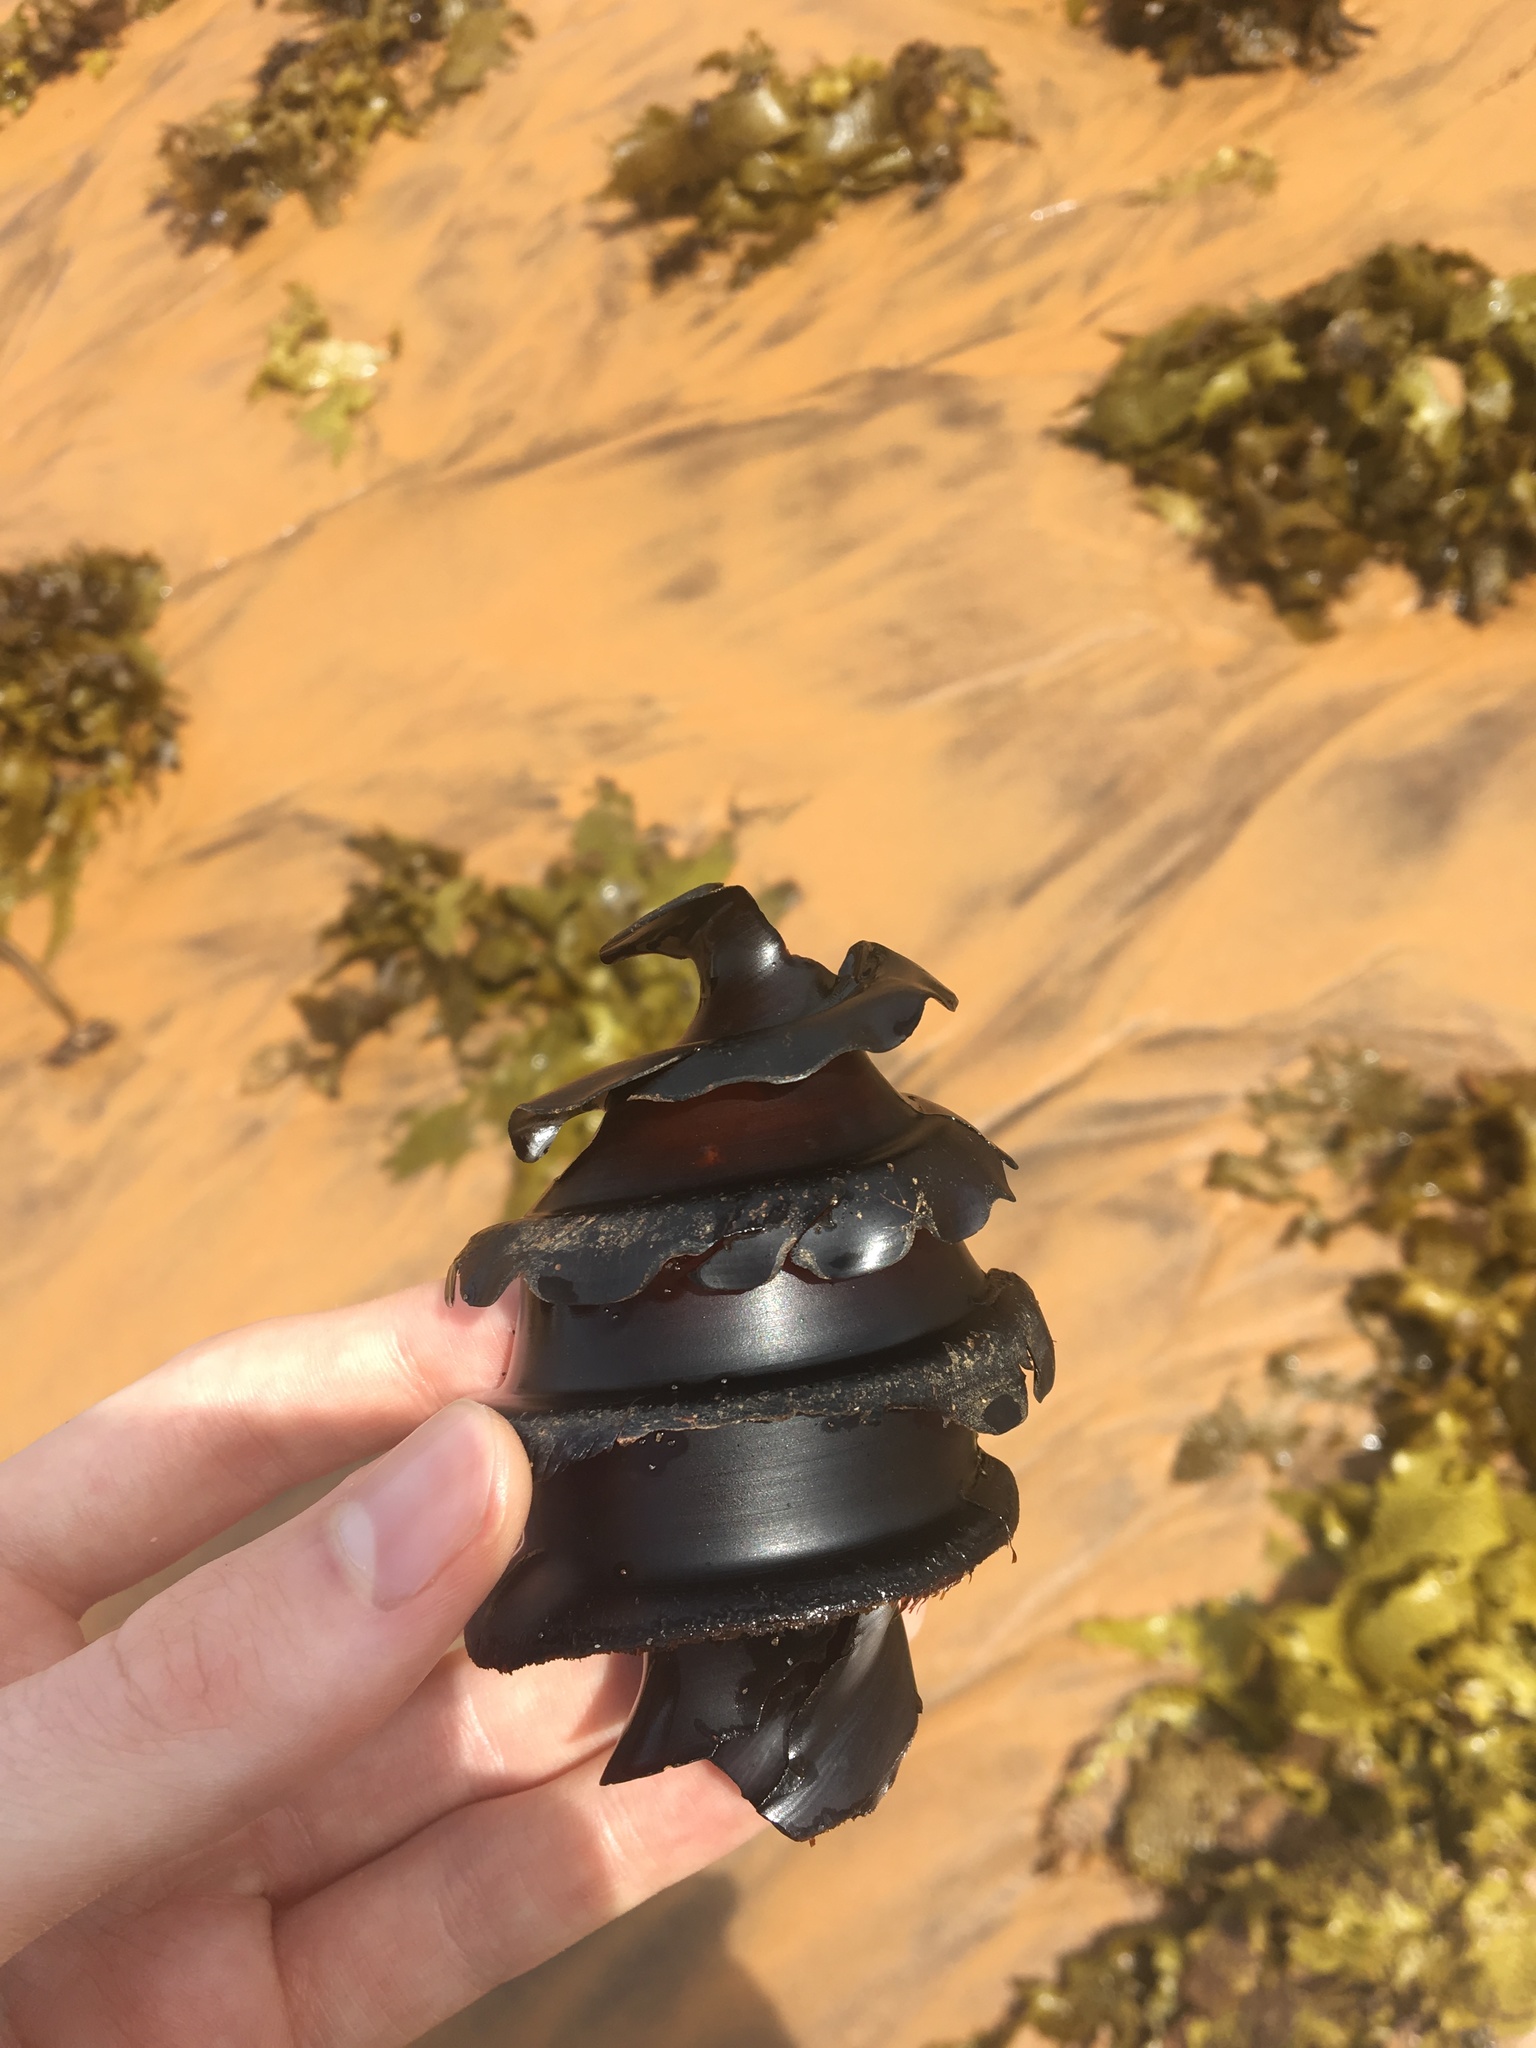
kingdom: Animalia
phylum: Chordata
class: Elasmobranchii
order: Heterodontiformes
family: Heterodontidae
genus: Heterodontus
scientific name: Heterodontus galeatus
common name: Crested bullhead shark
